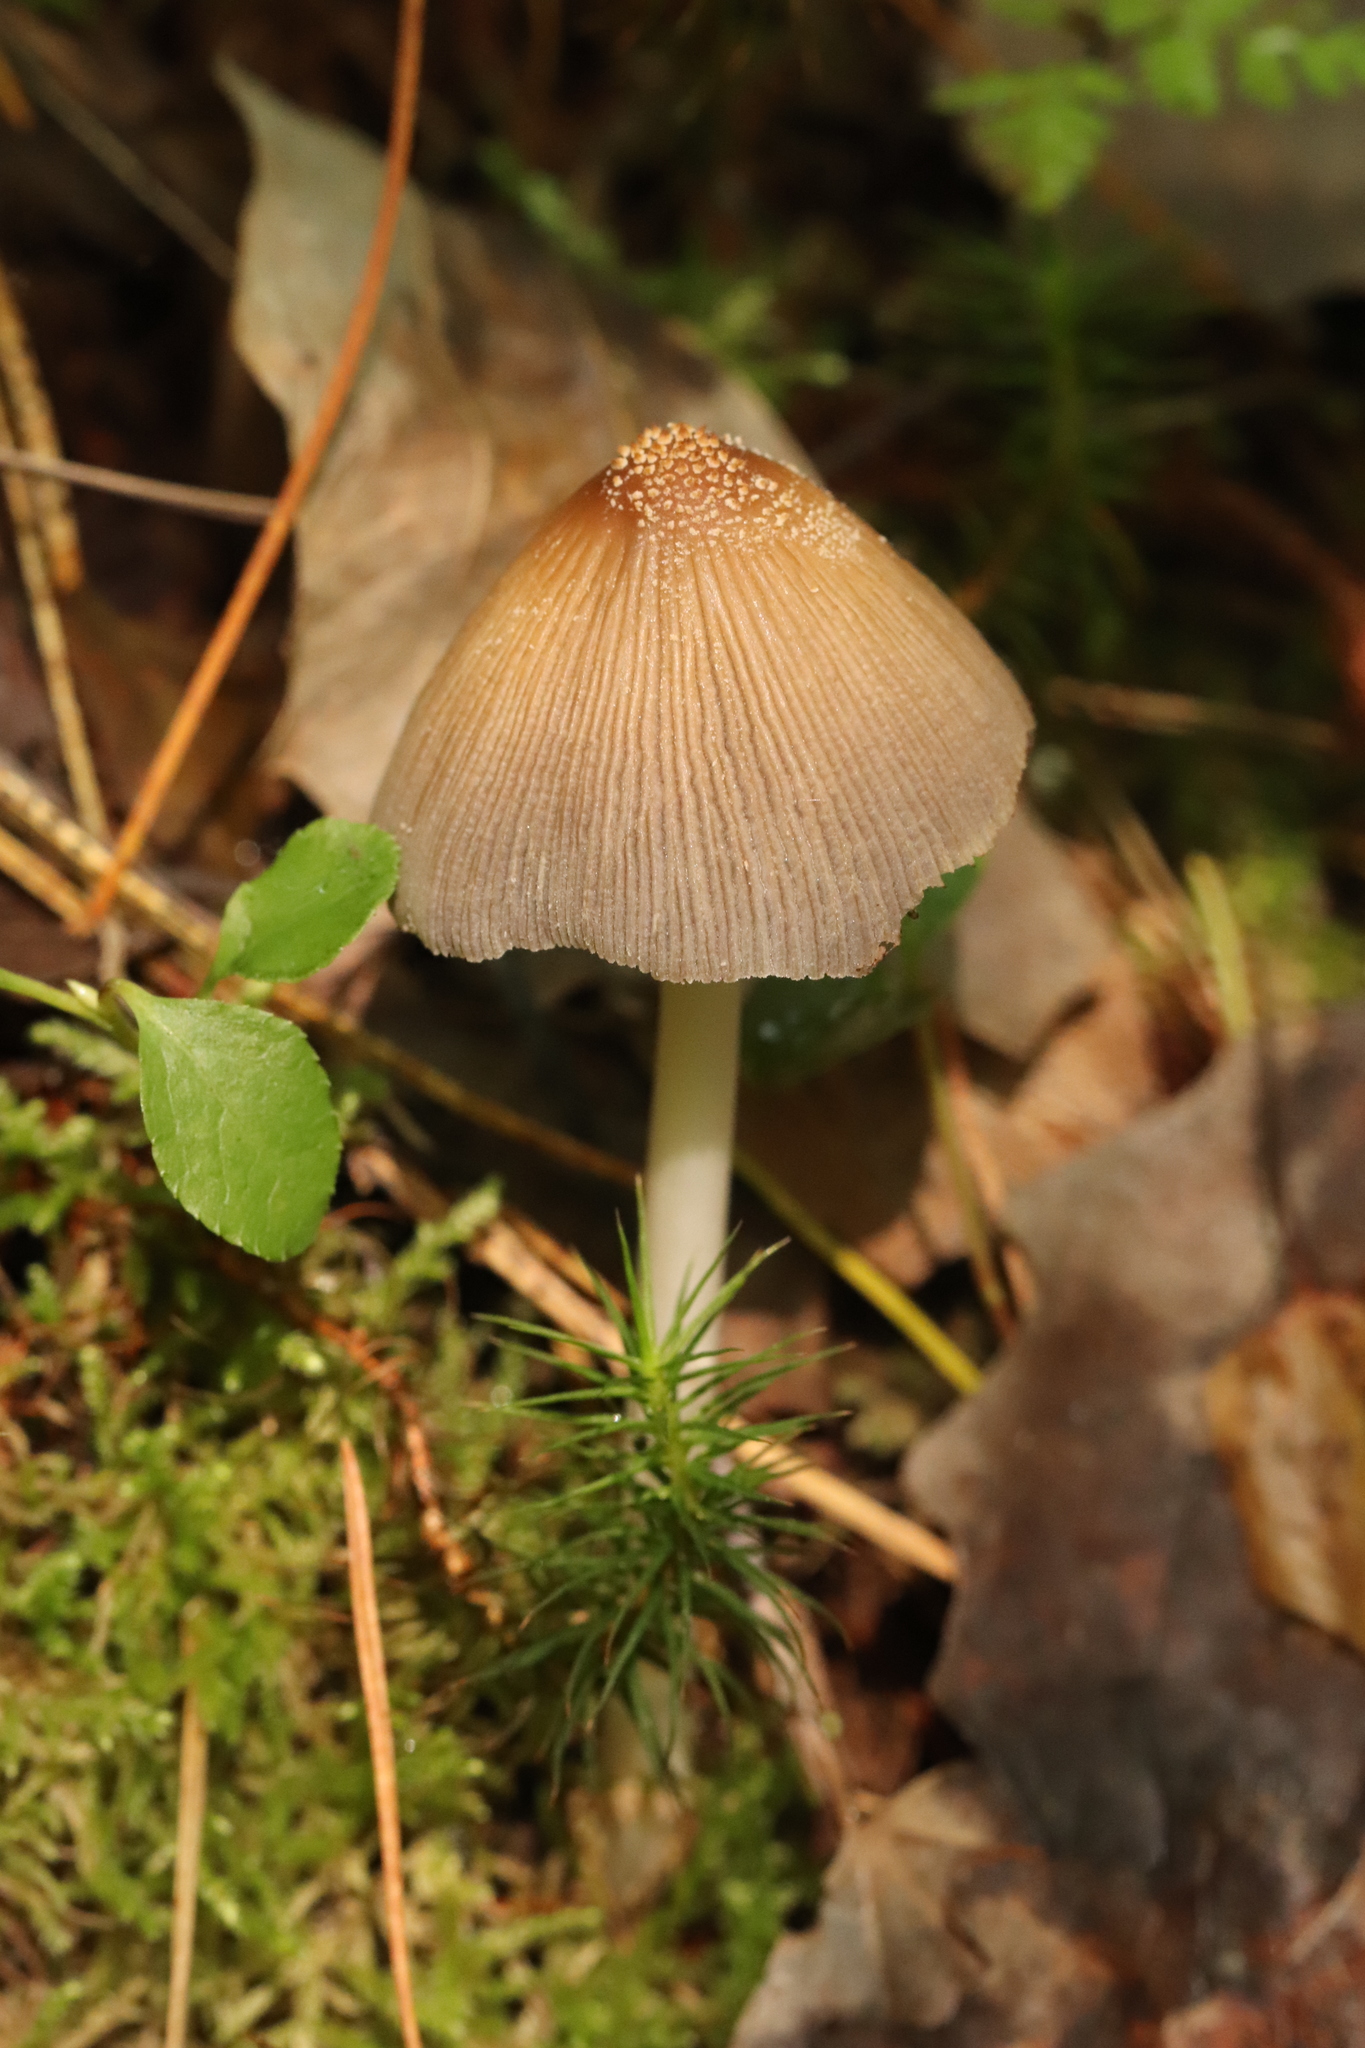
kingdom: Fungi
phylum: Basidiomycota
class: Agaricomycetes
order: Agaricales
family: Psathyrellaceae
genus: Coprinellus
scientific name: Coprinellus domesticus
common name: Firerug inkcap
